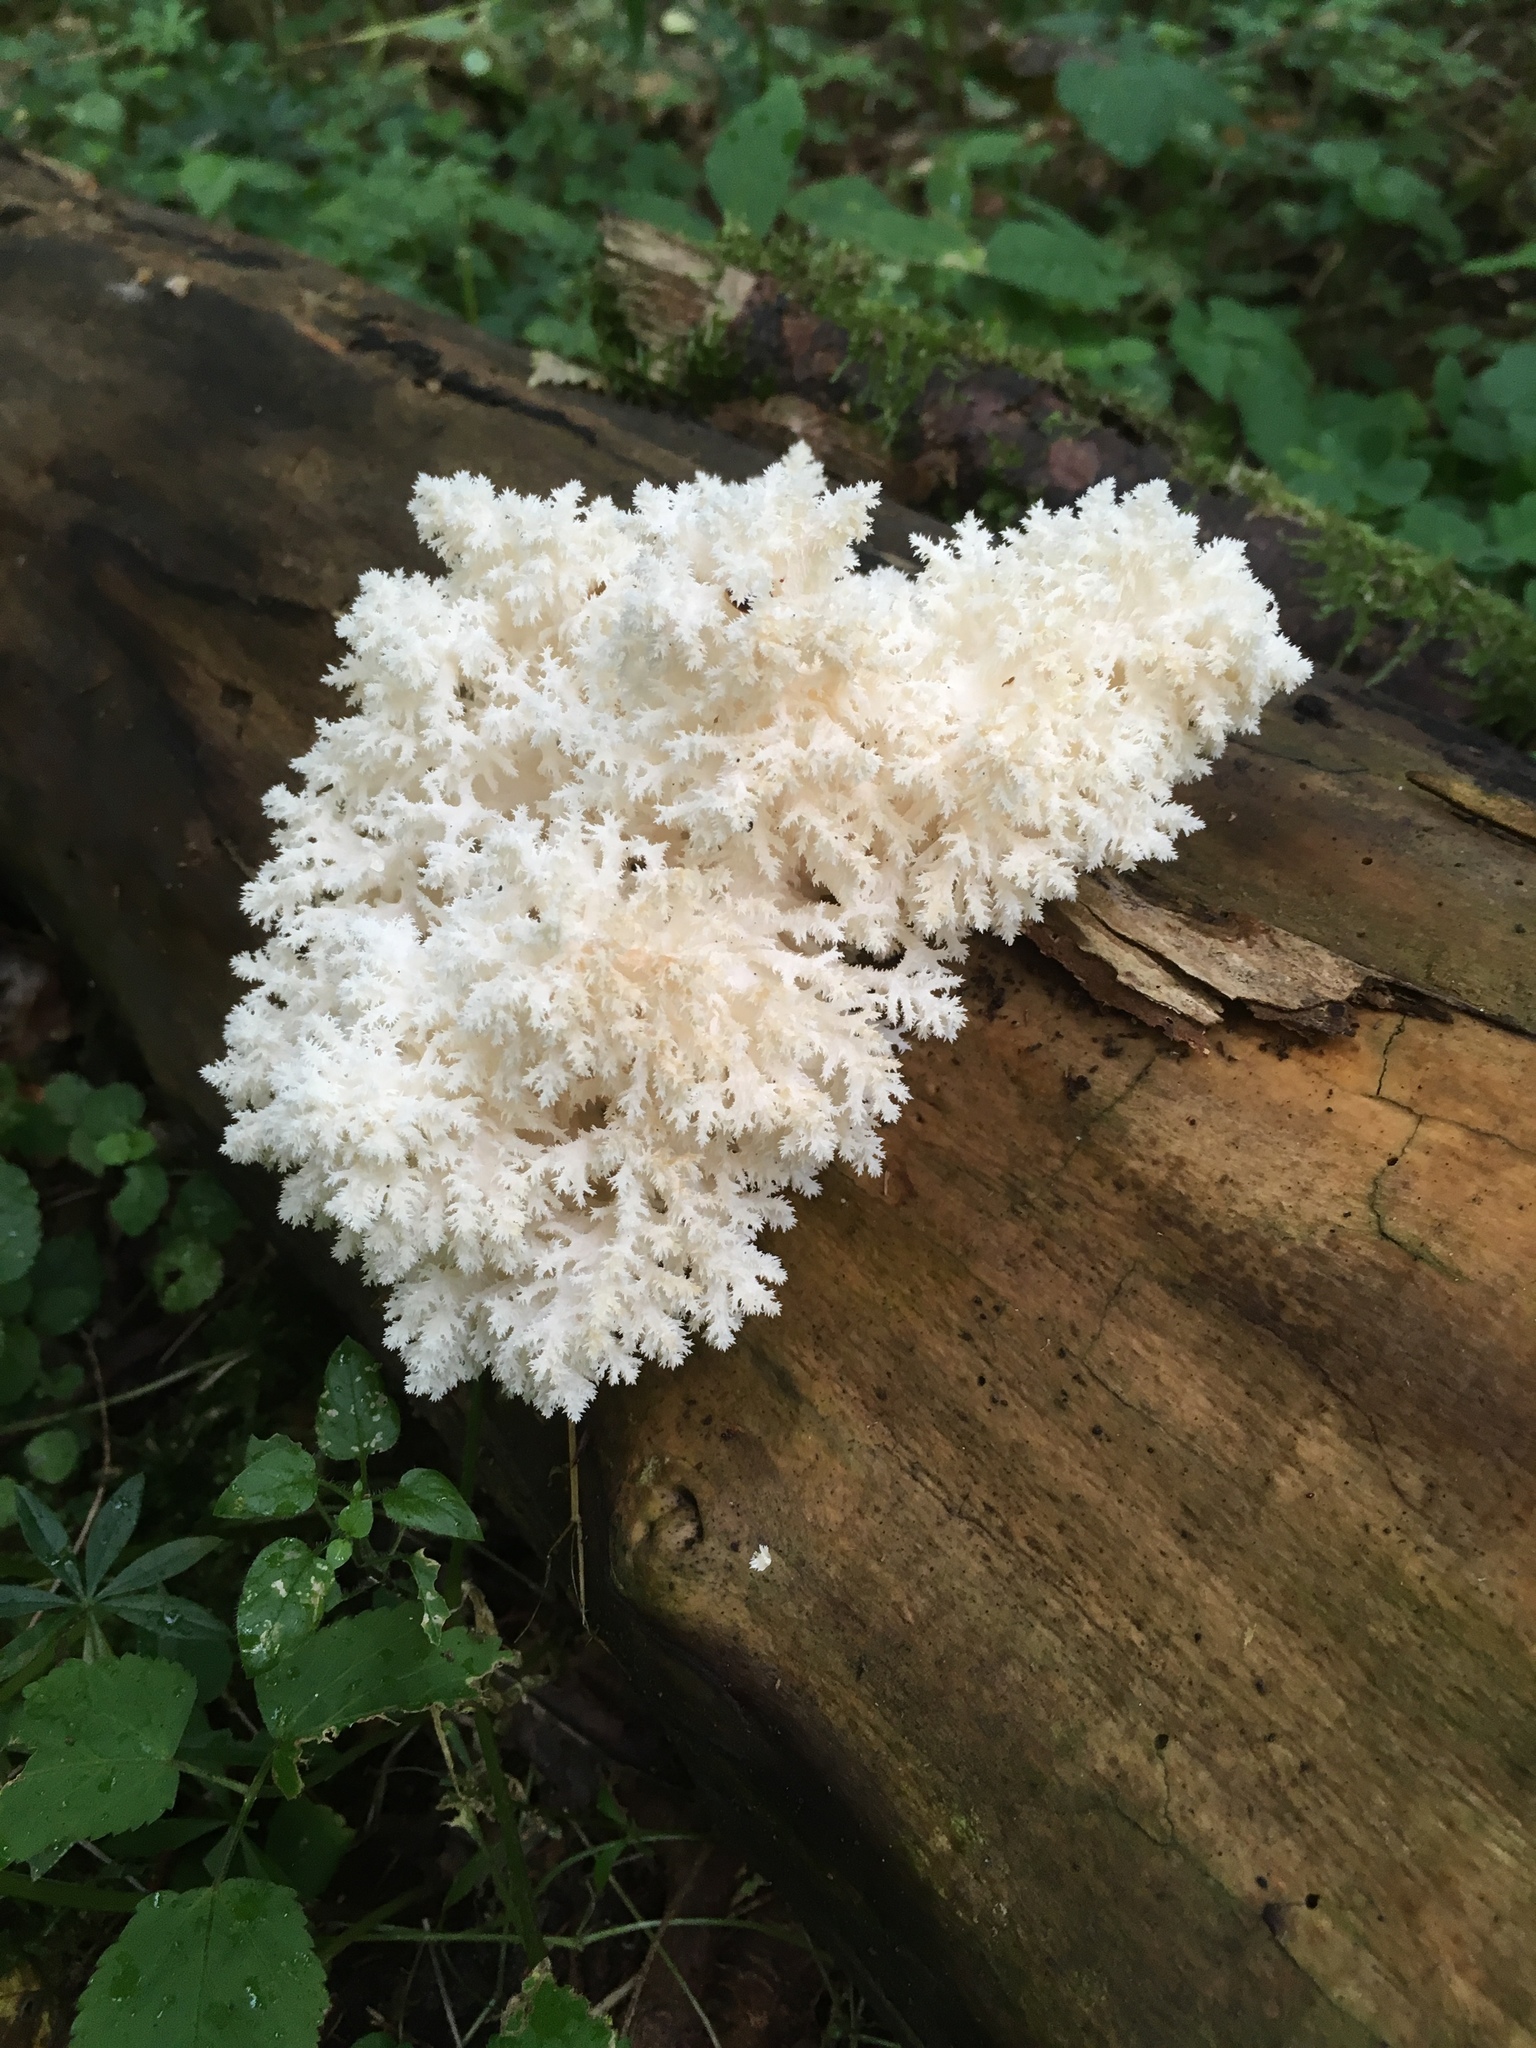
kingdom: Fungi
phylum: Basidiomycota
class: Agaricomycetes
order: Russulales
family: Hericiaceae
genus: Hericium
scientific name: Hericium coralloides
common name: Coral tooth
